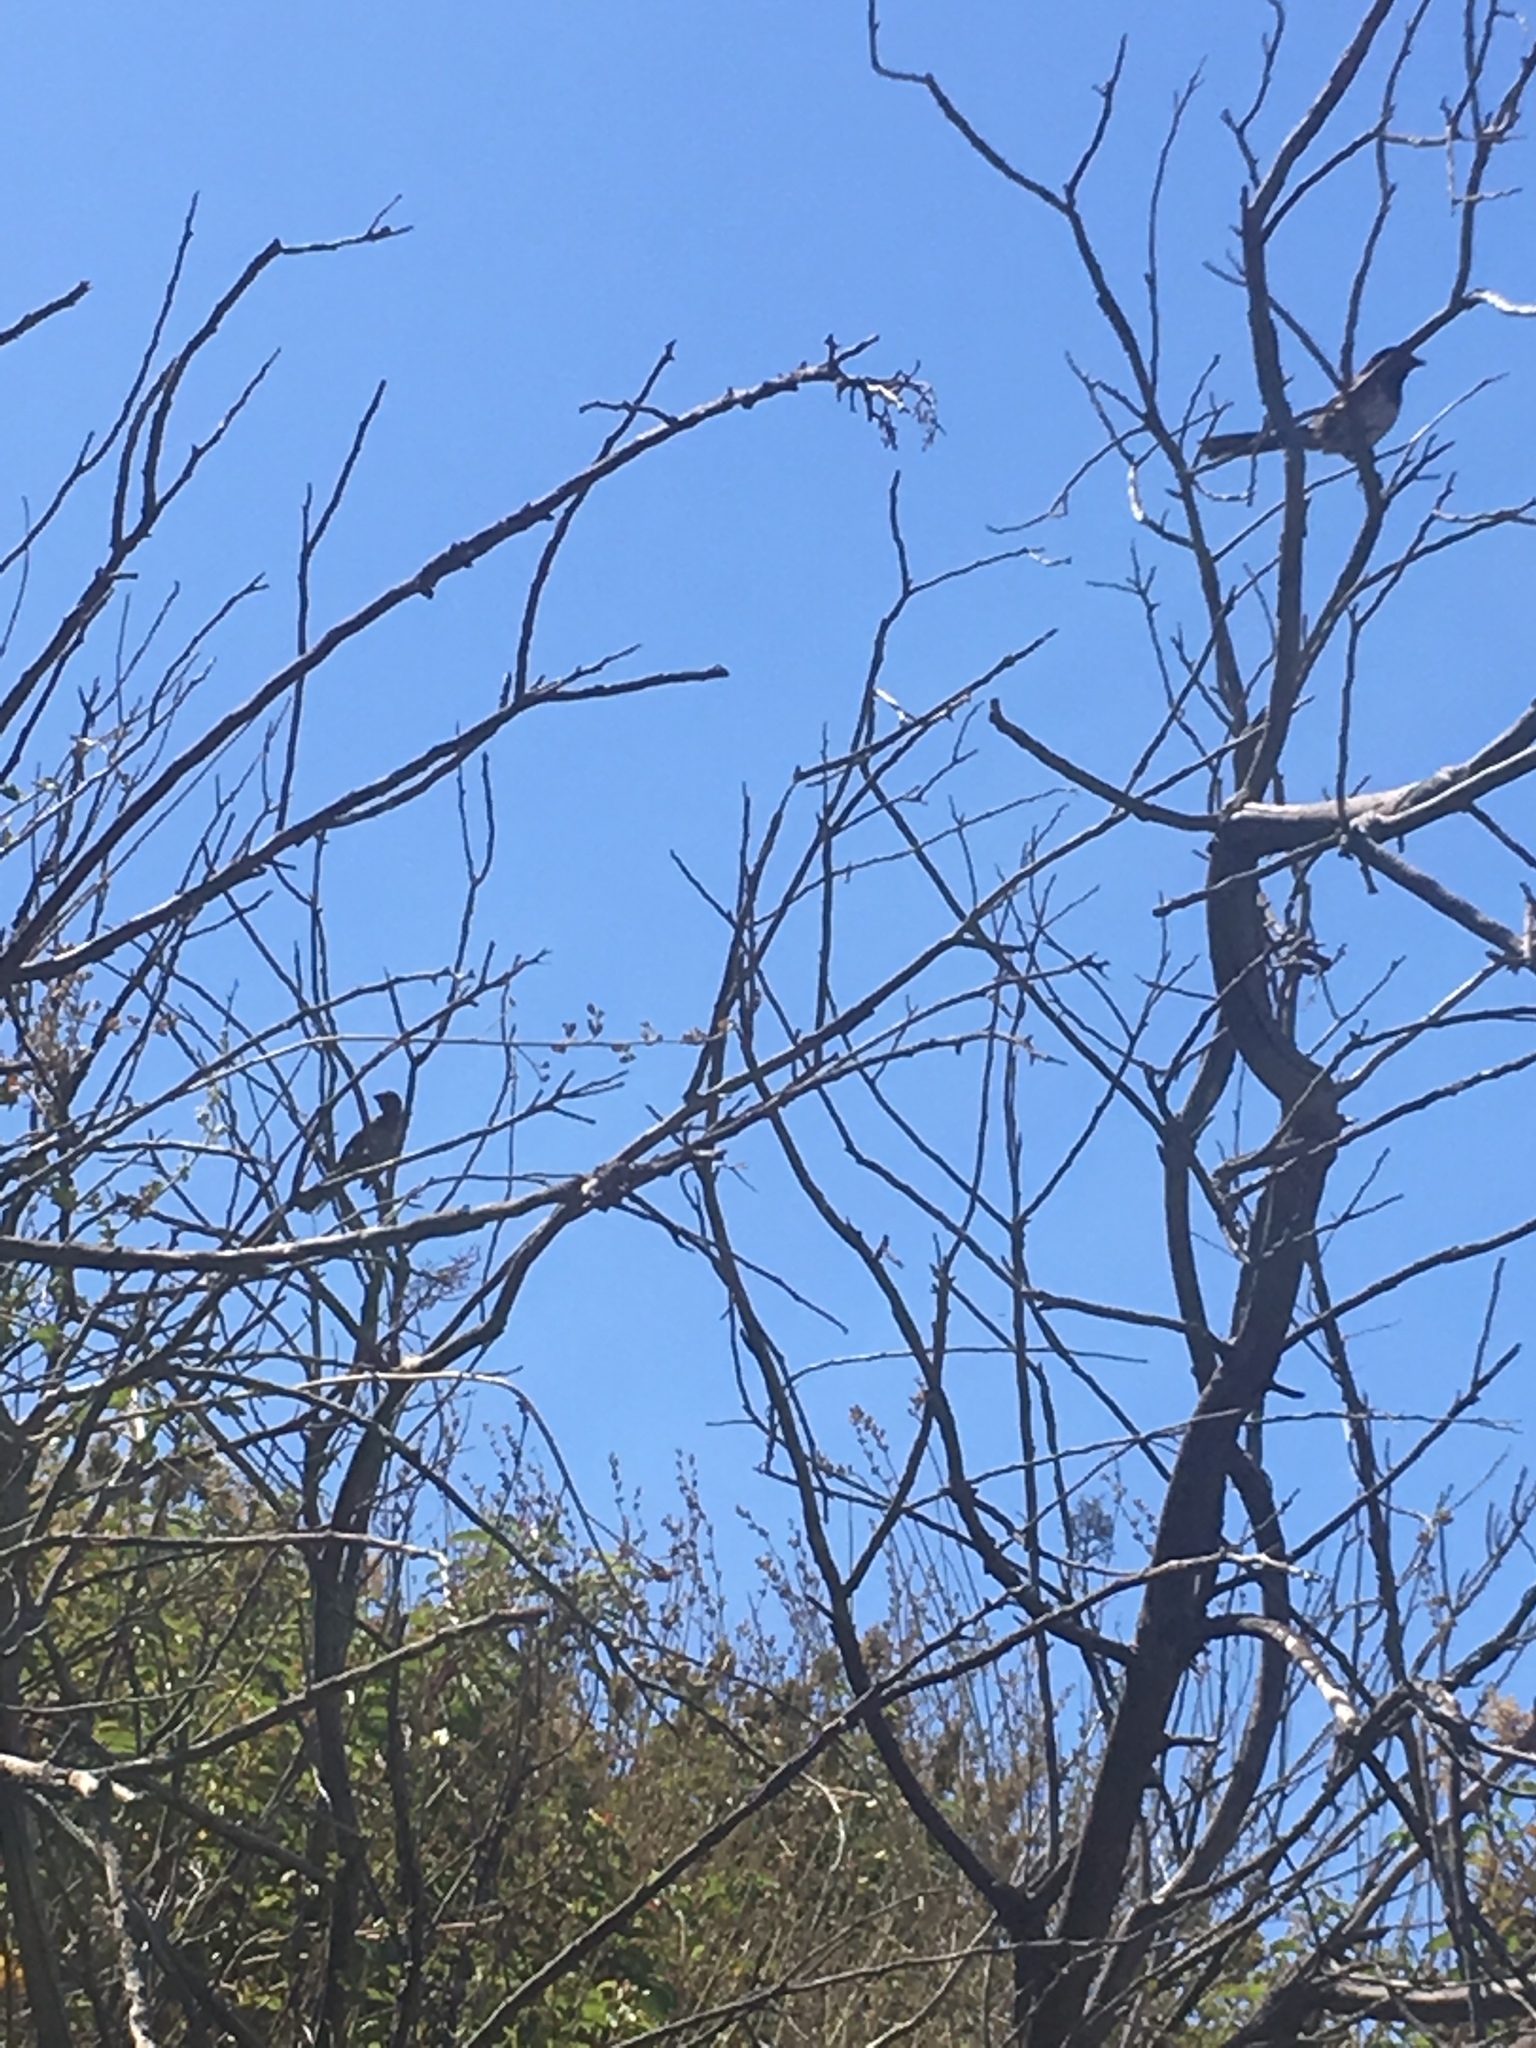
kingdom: Animalia
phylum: Chordata
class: Aves
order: Passeriformes
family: Passerellidae
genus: Pipilo
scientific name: Pipilo maculatus
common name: Spotted towhee
